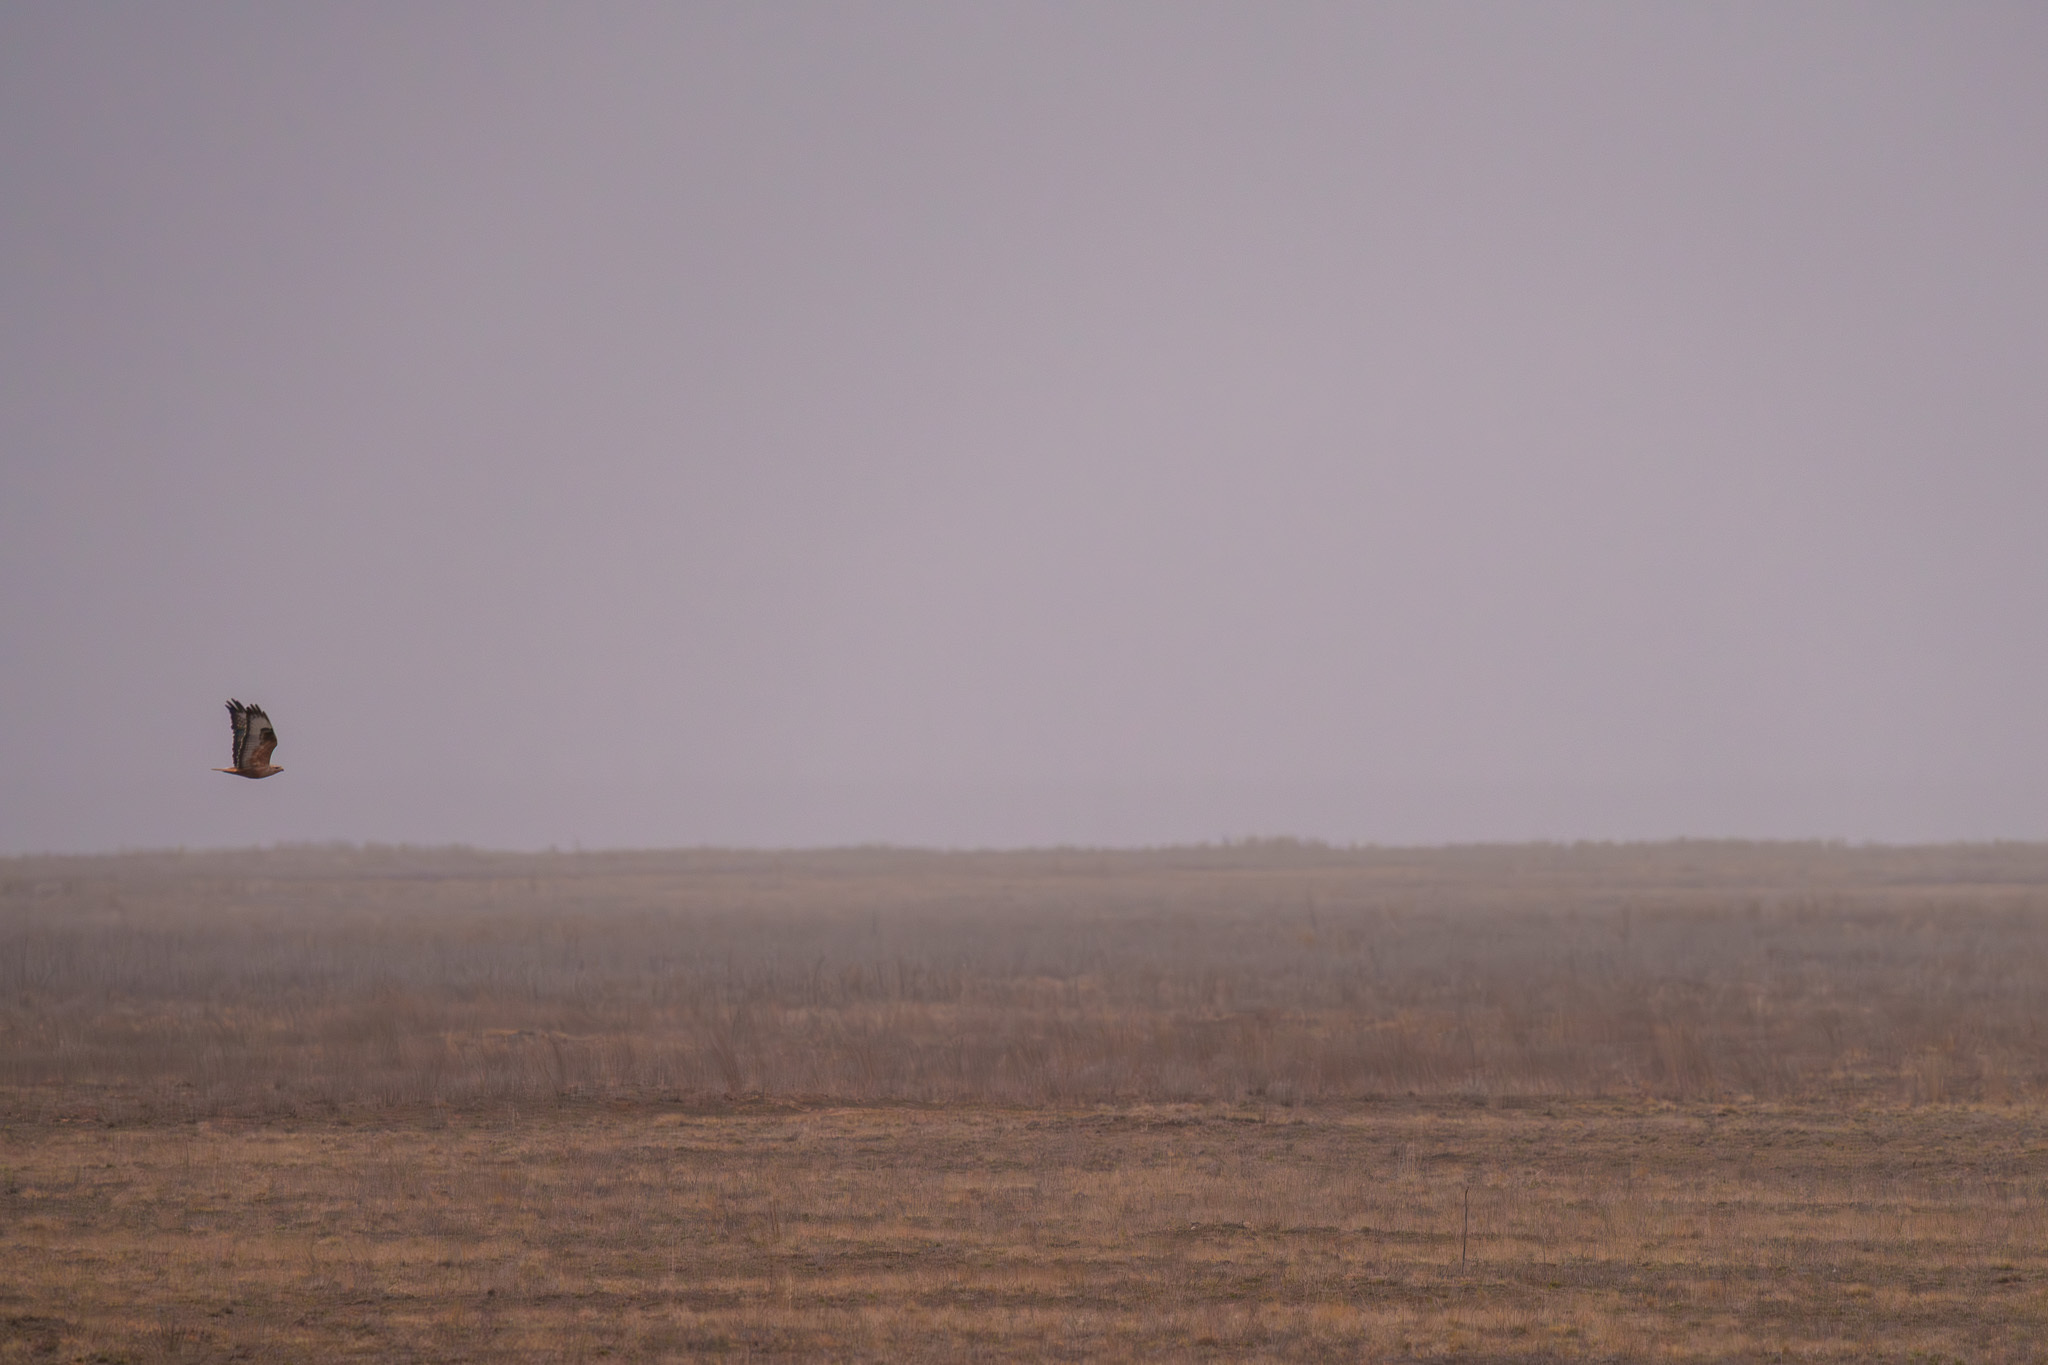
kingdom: Animalia
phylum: Chordata
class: Aves
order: Accipitriformes
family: Accipitridae
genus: Buteo
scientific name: Buteo rufinus
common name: Long-legged buzzard
